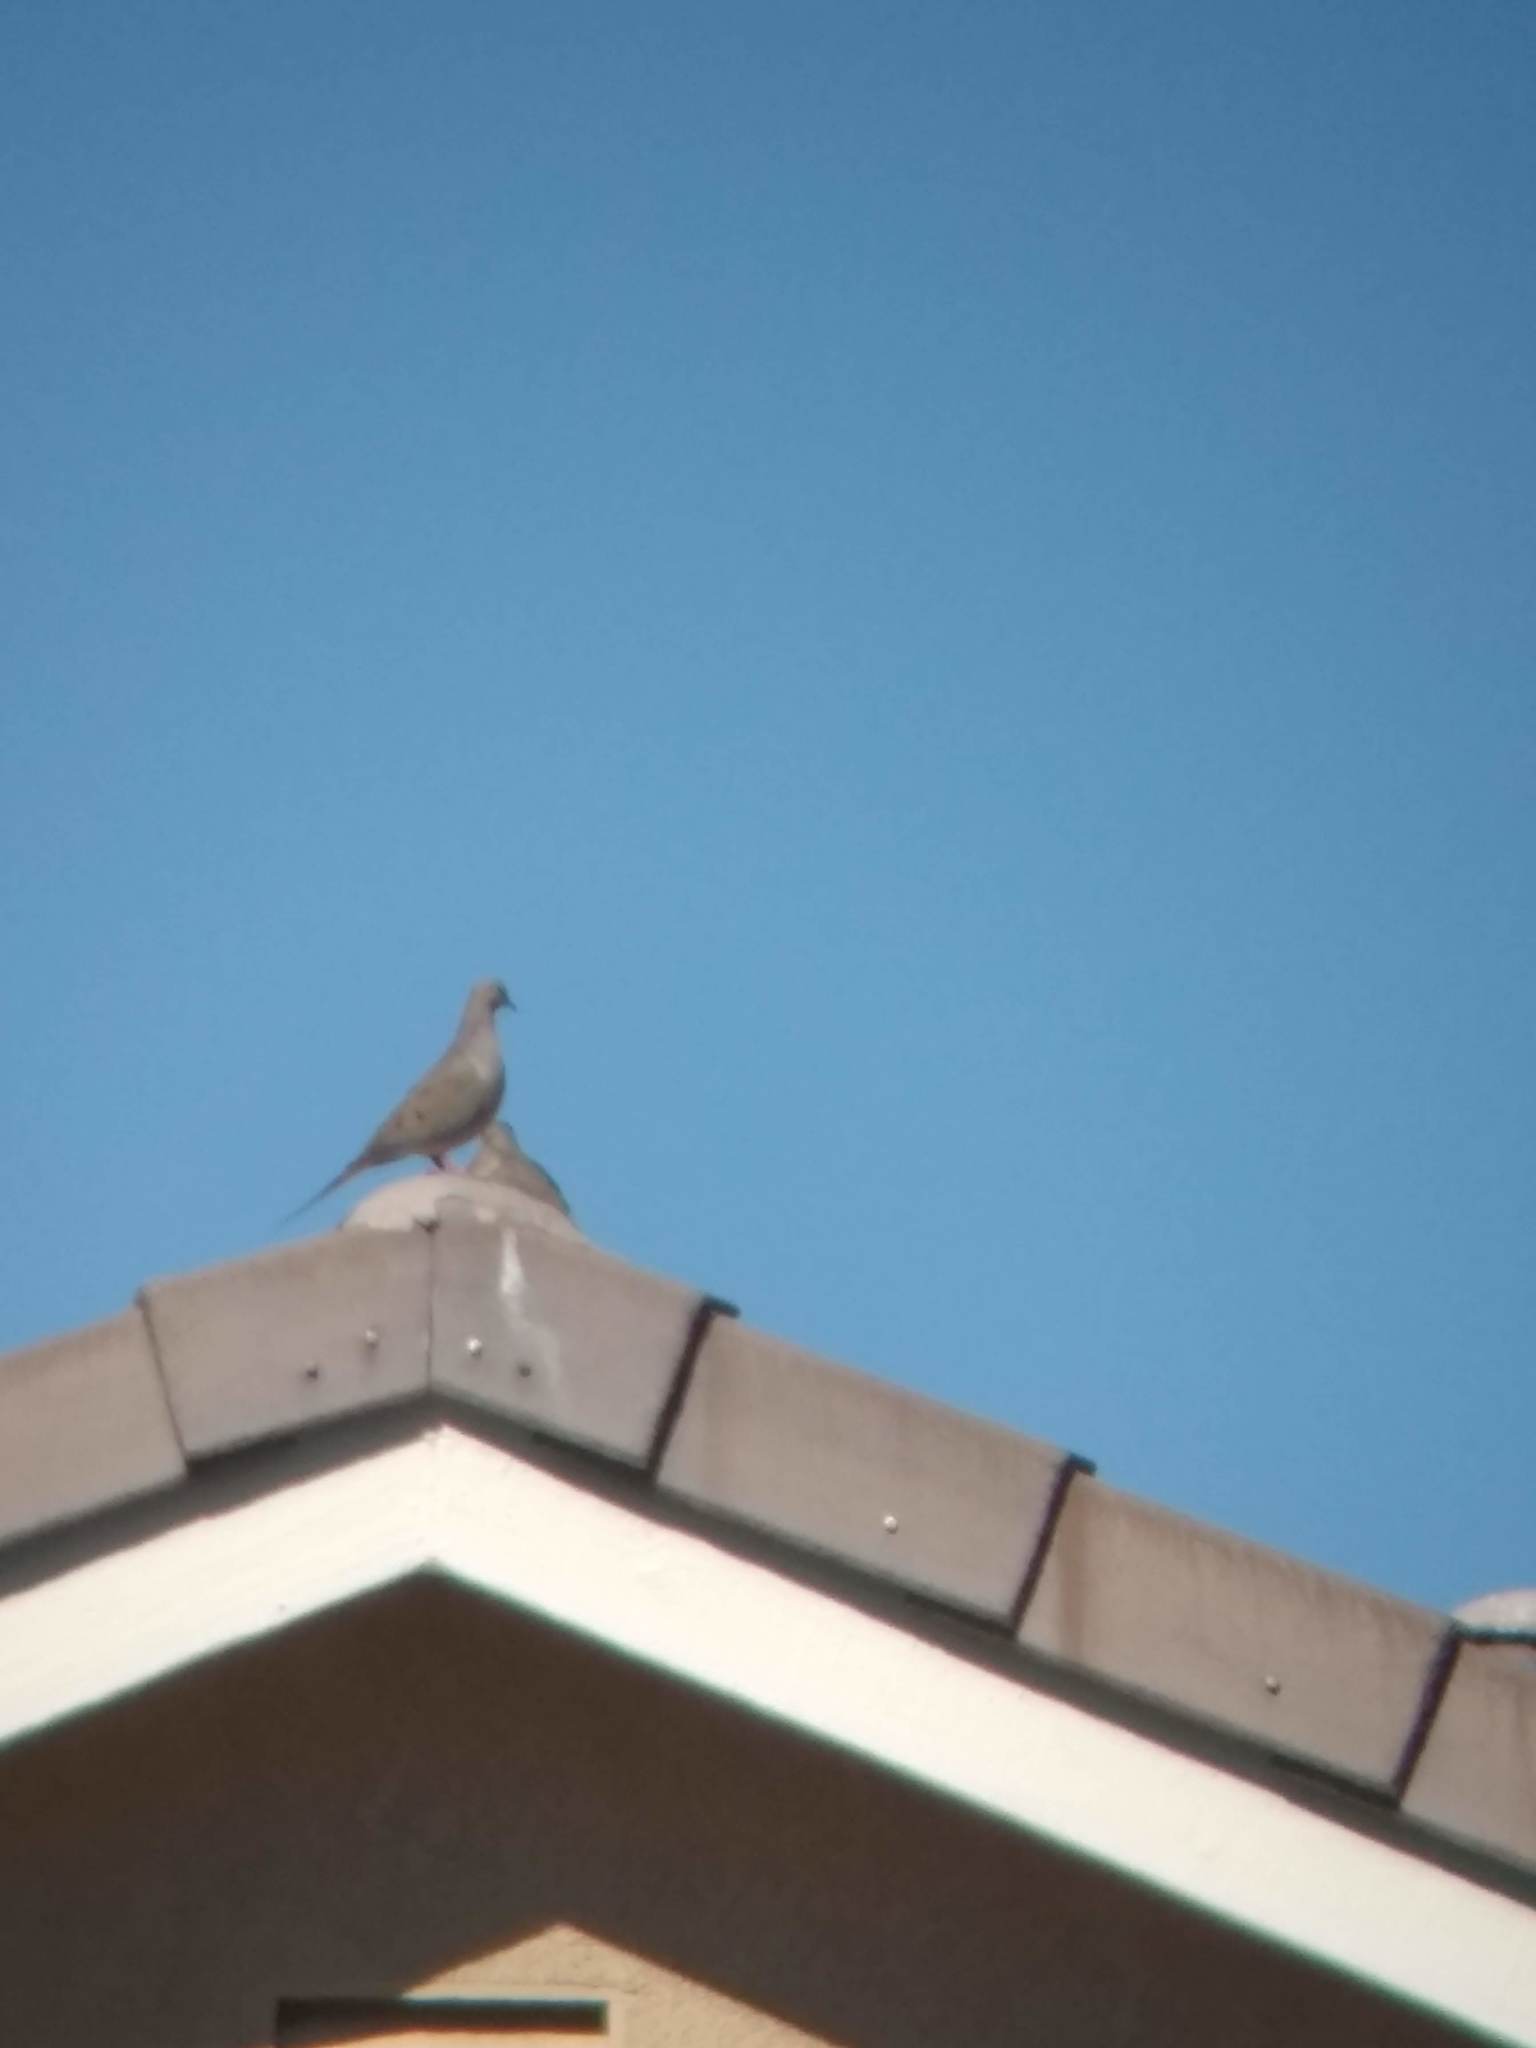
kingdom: Animalia
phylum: Chordata
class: Aves
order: Columbiformes
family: Columbidae
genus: Zenaida
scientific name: Zenaida macroura
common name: Mourning dove
